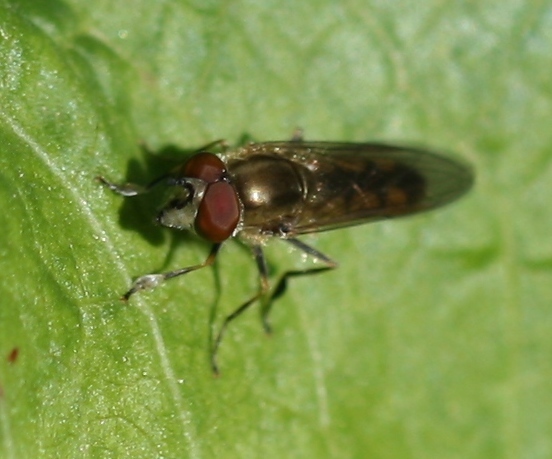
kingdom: Animalia
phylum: Arthropoda
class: Insecta
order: Diptera
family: Syrphidae
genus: Platycheirus
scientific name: Platycheirus manicatus
